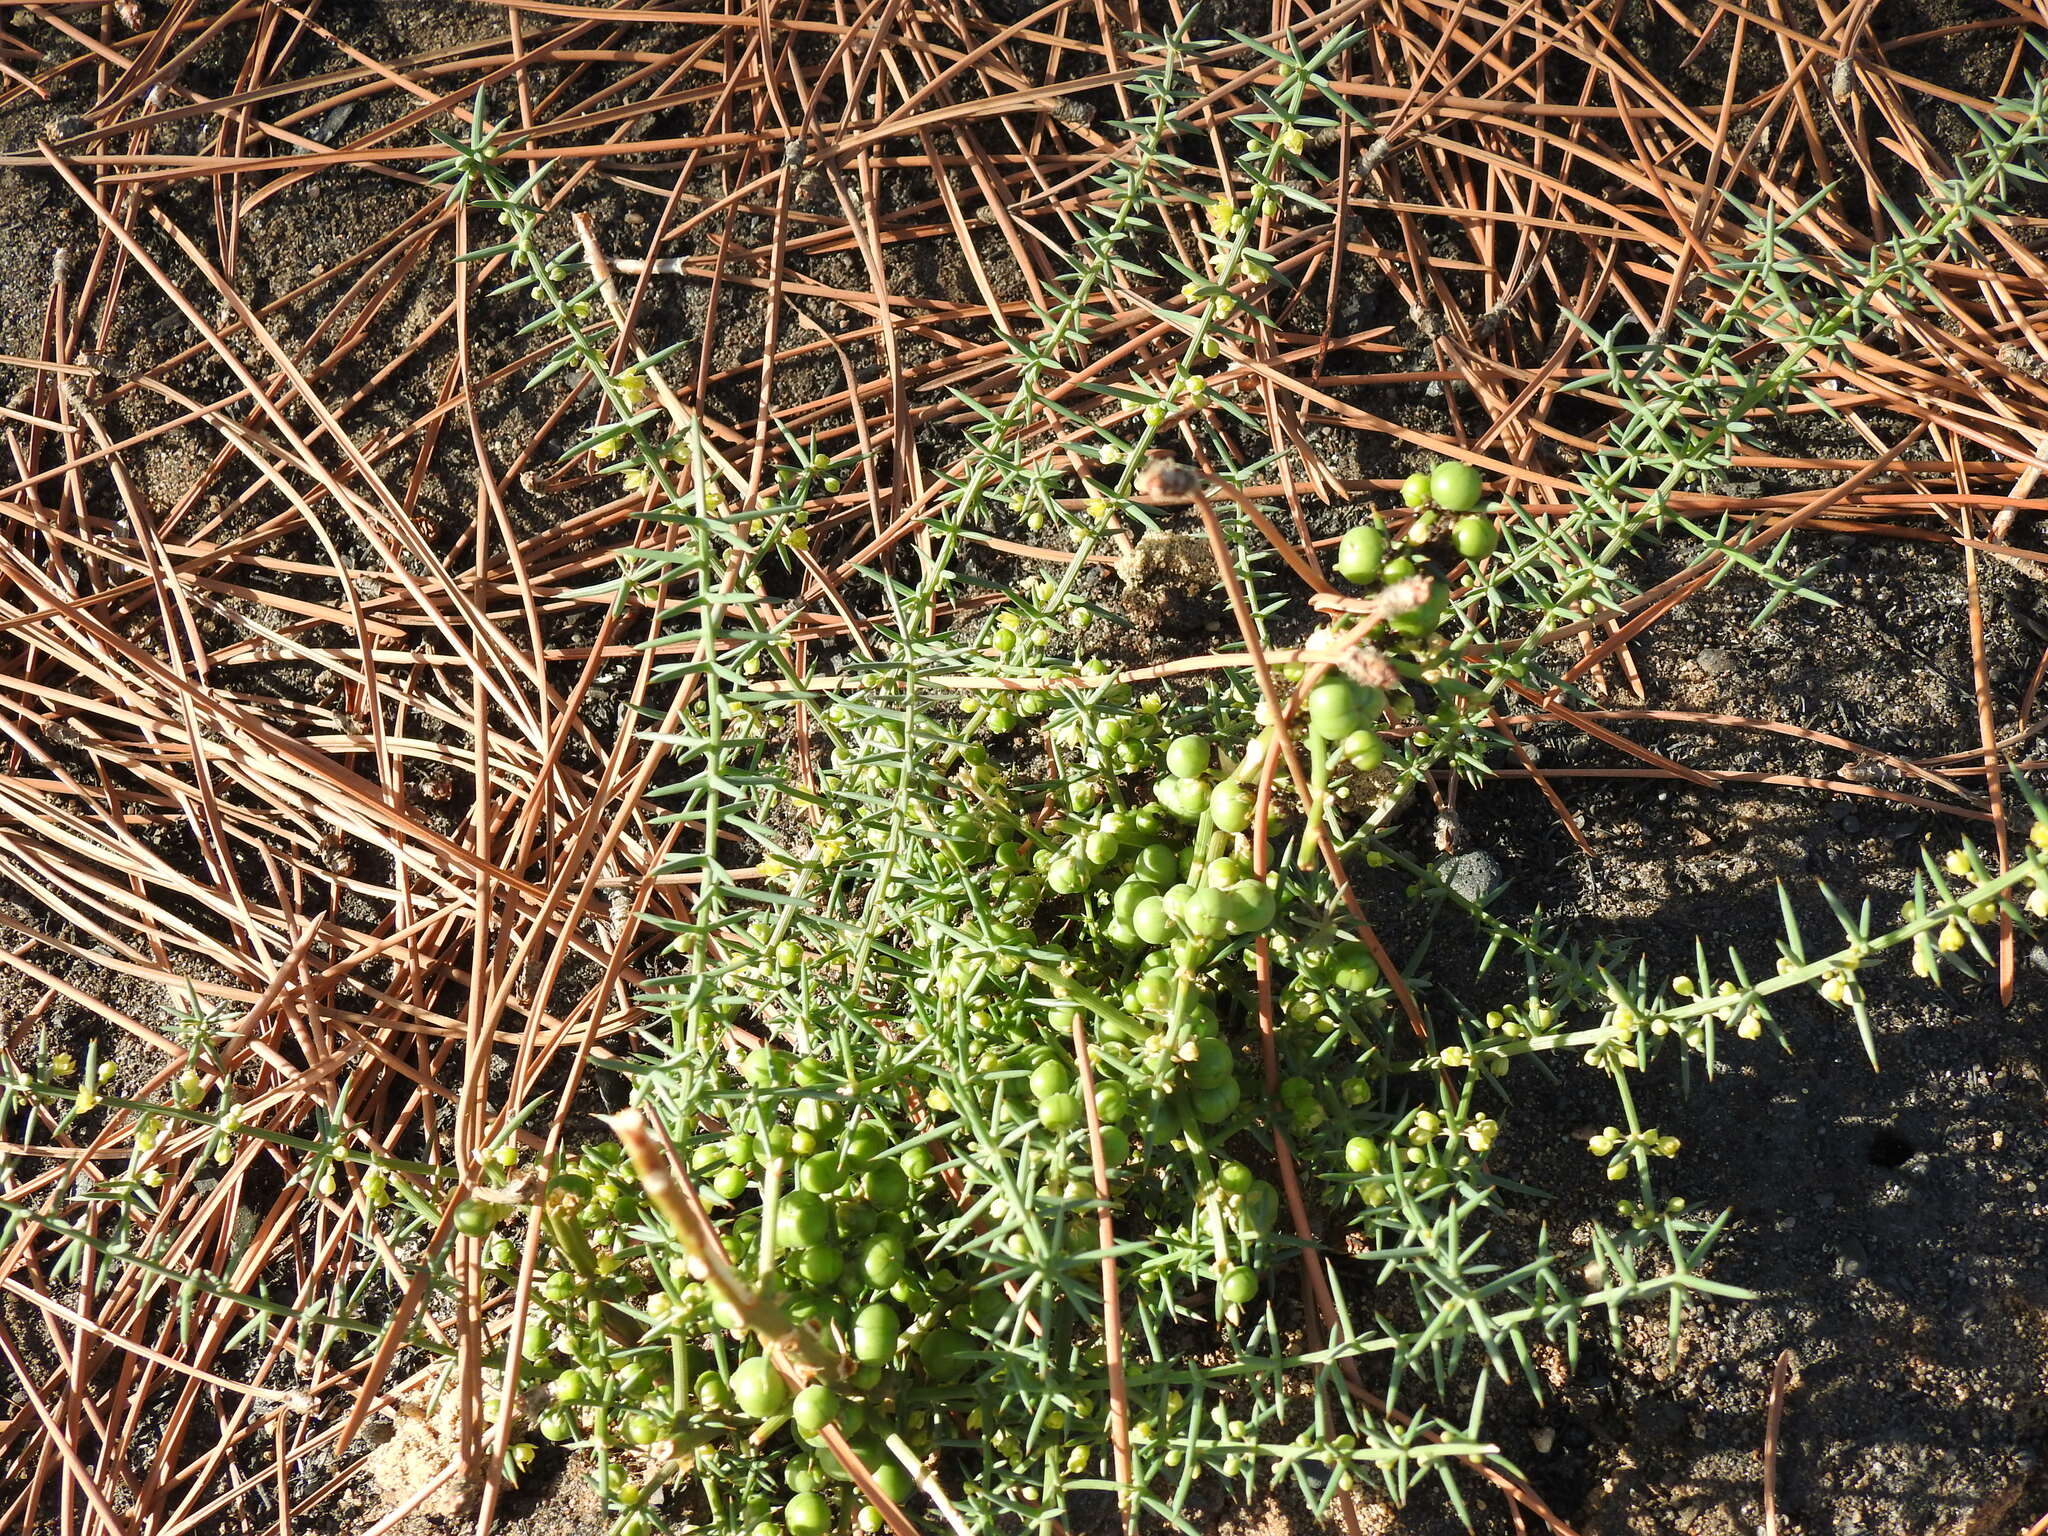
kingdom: Plantae
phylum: Tracheophyta
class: Liliopsida
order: Asparagales
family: Asparagaceae
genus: Asparagus
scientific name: Asparagus aphyllus
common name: Mediterranean asparagus
